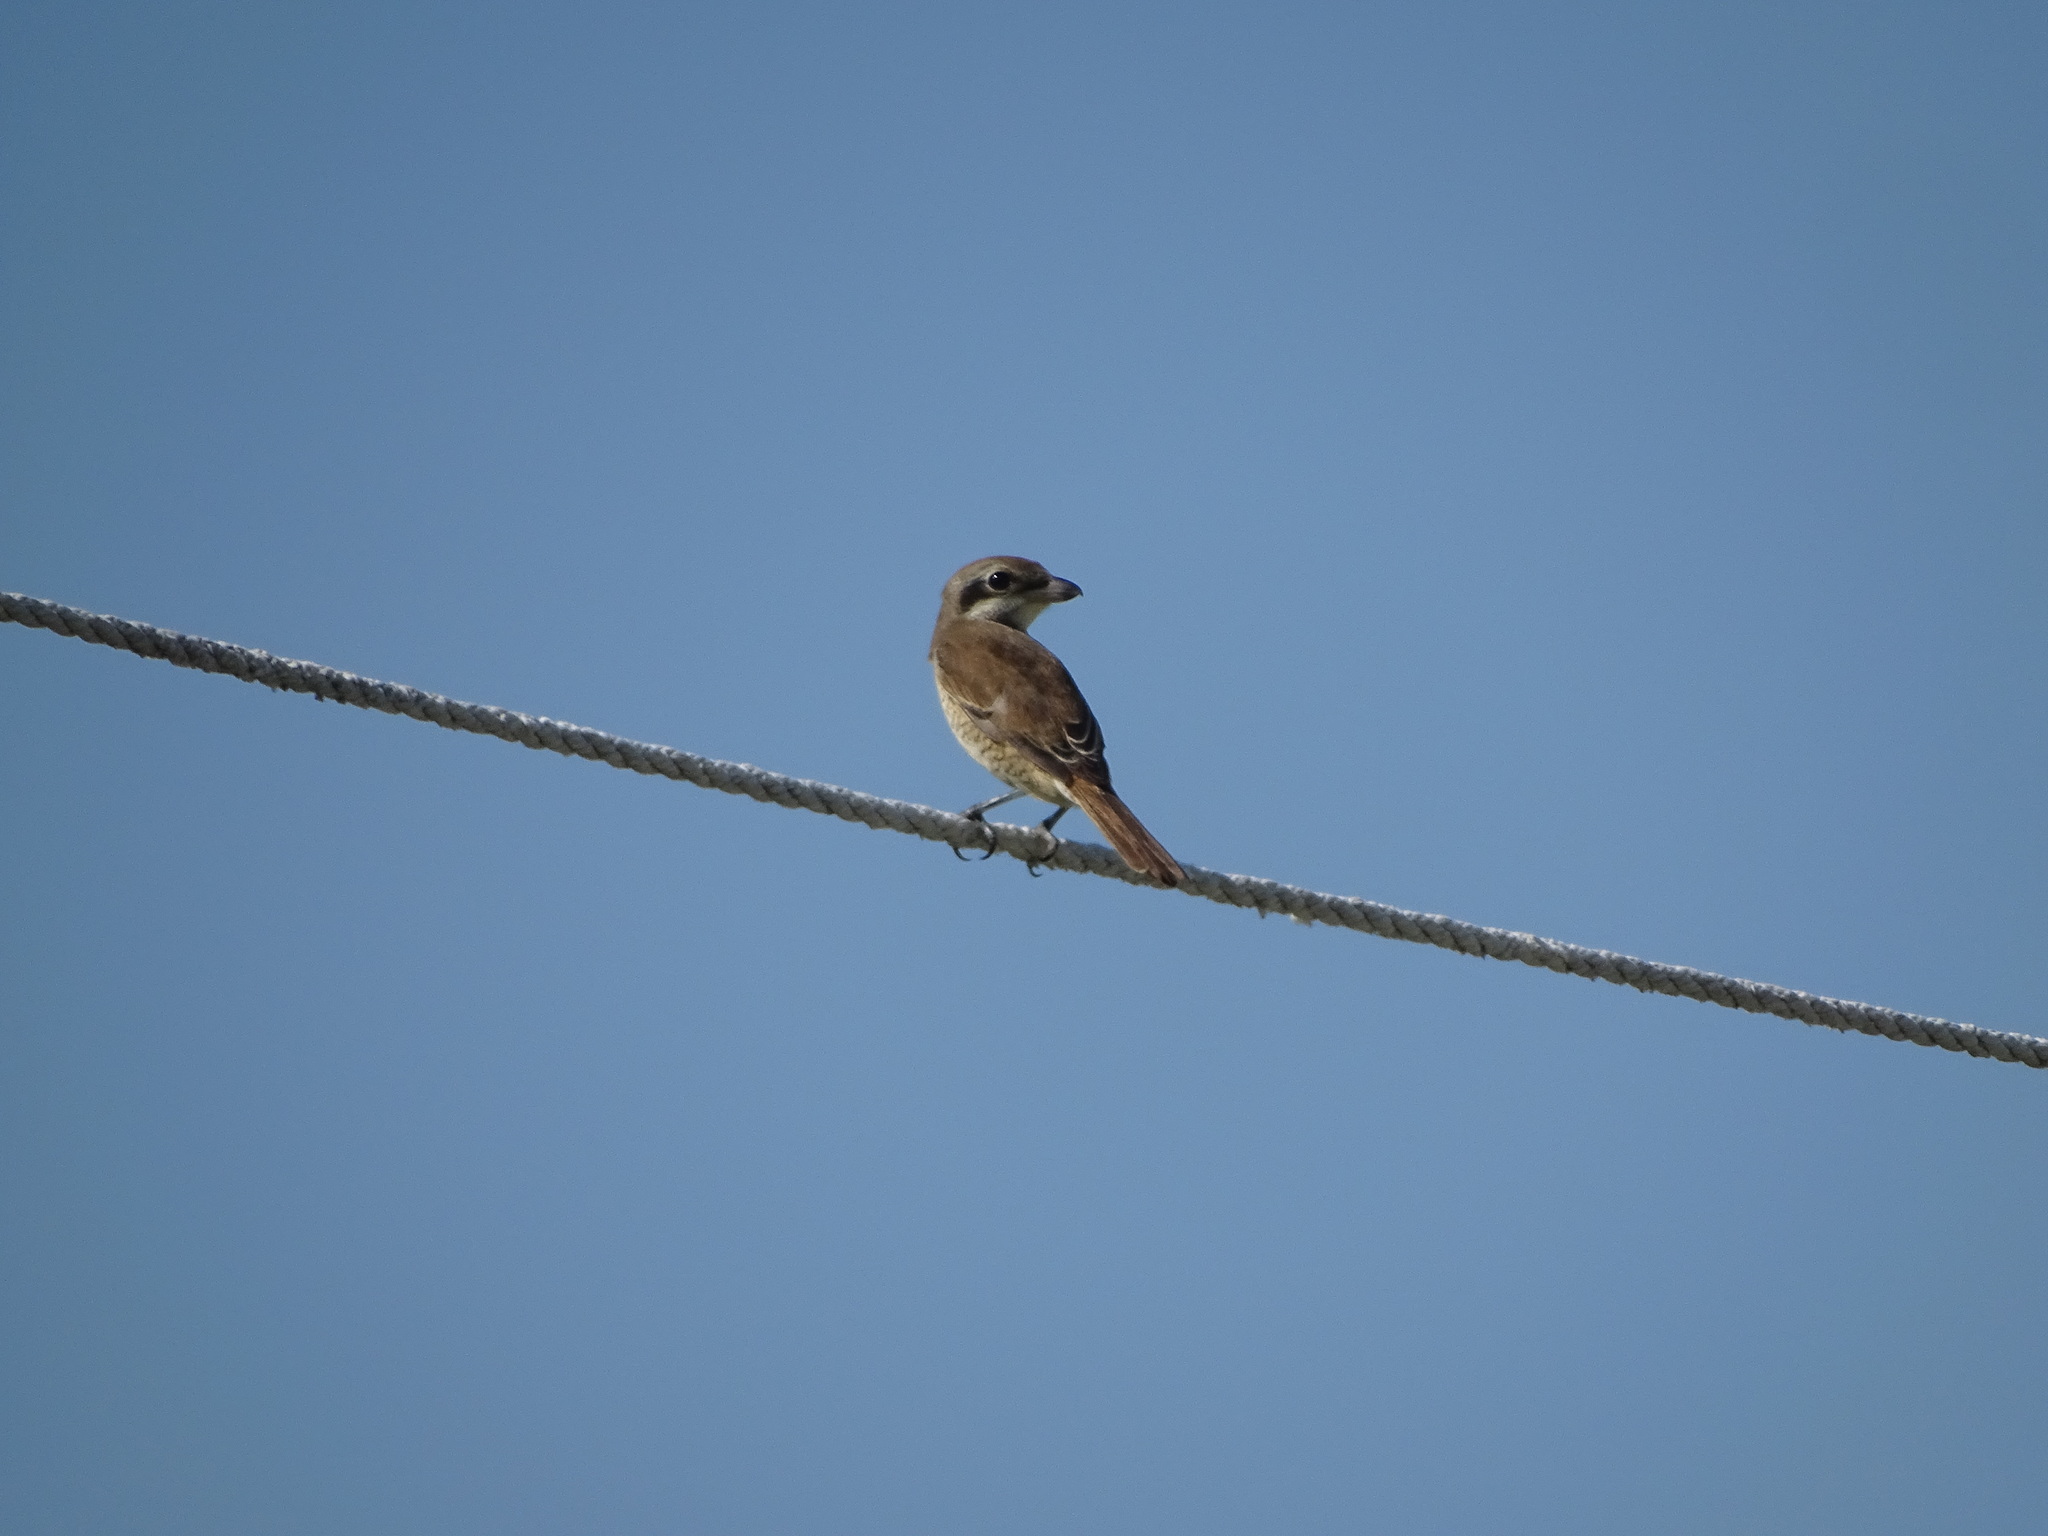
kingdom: Animalia
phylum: Chordata
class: Aves
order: Passeriformes
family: Laniidae
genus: Lanius
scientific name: Lanius cristatus
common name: Brown shrike
